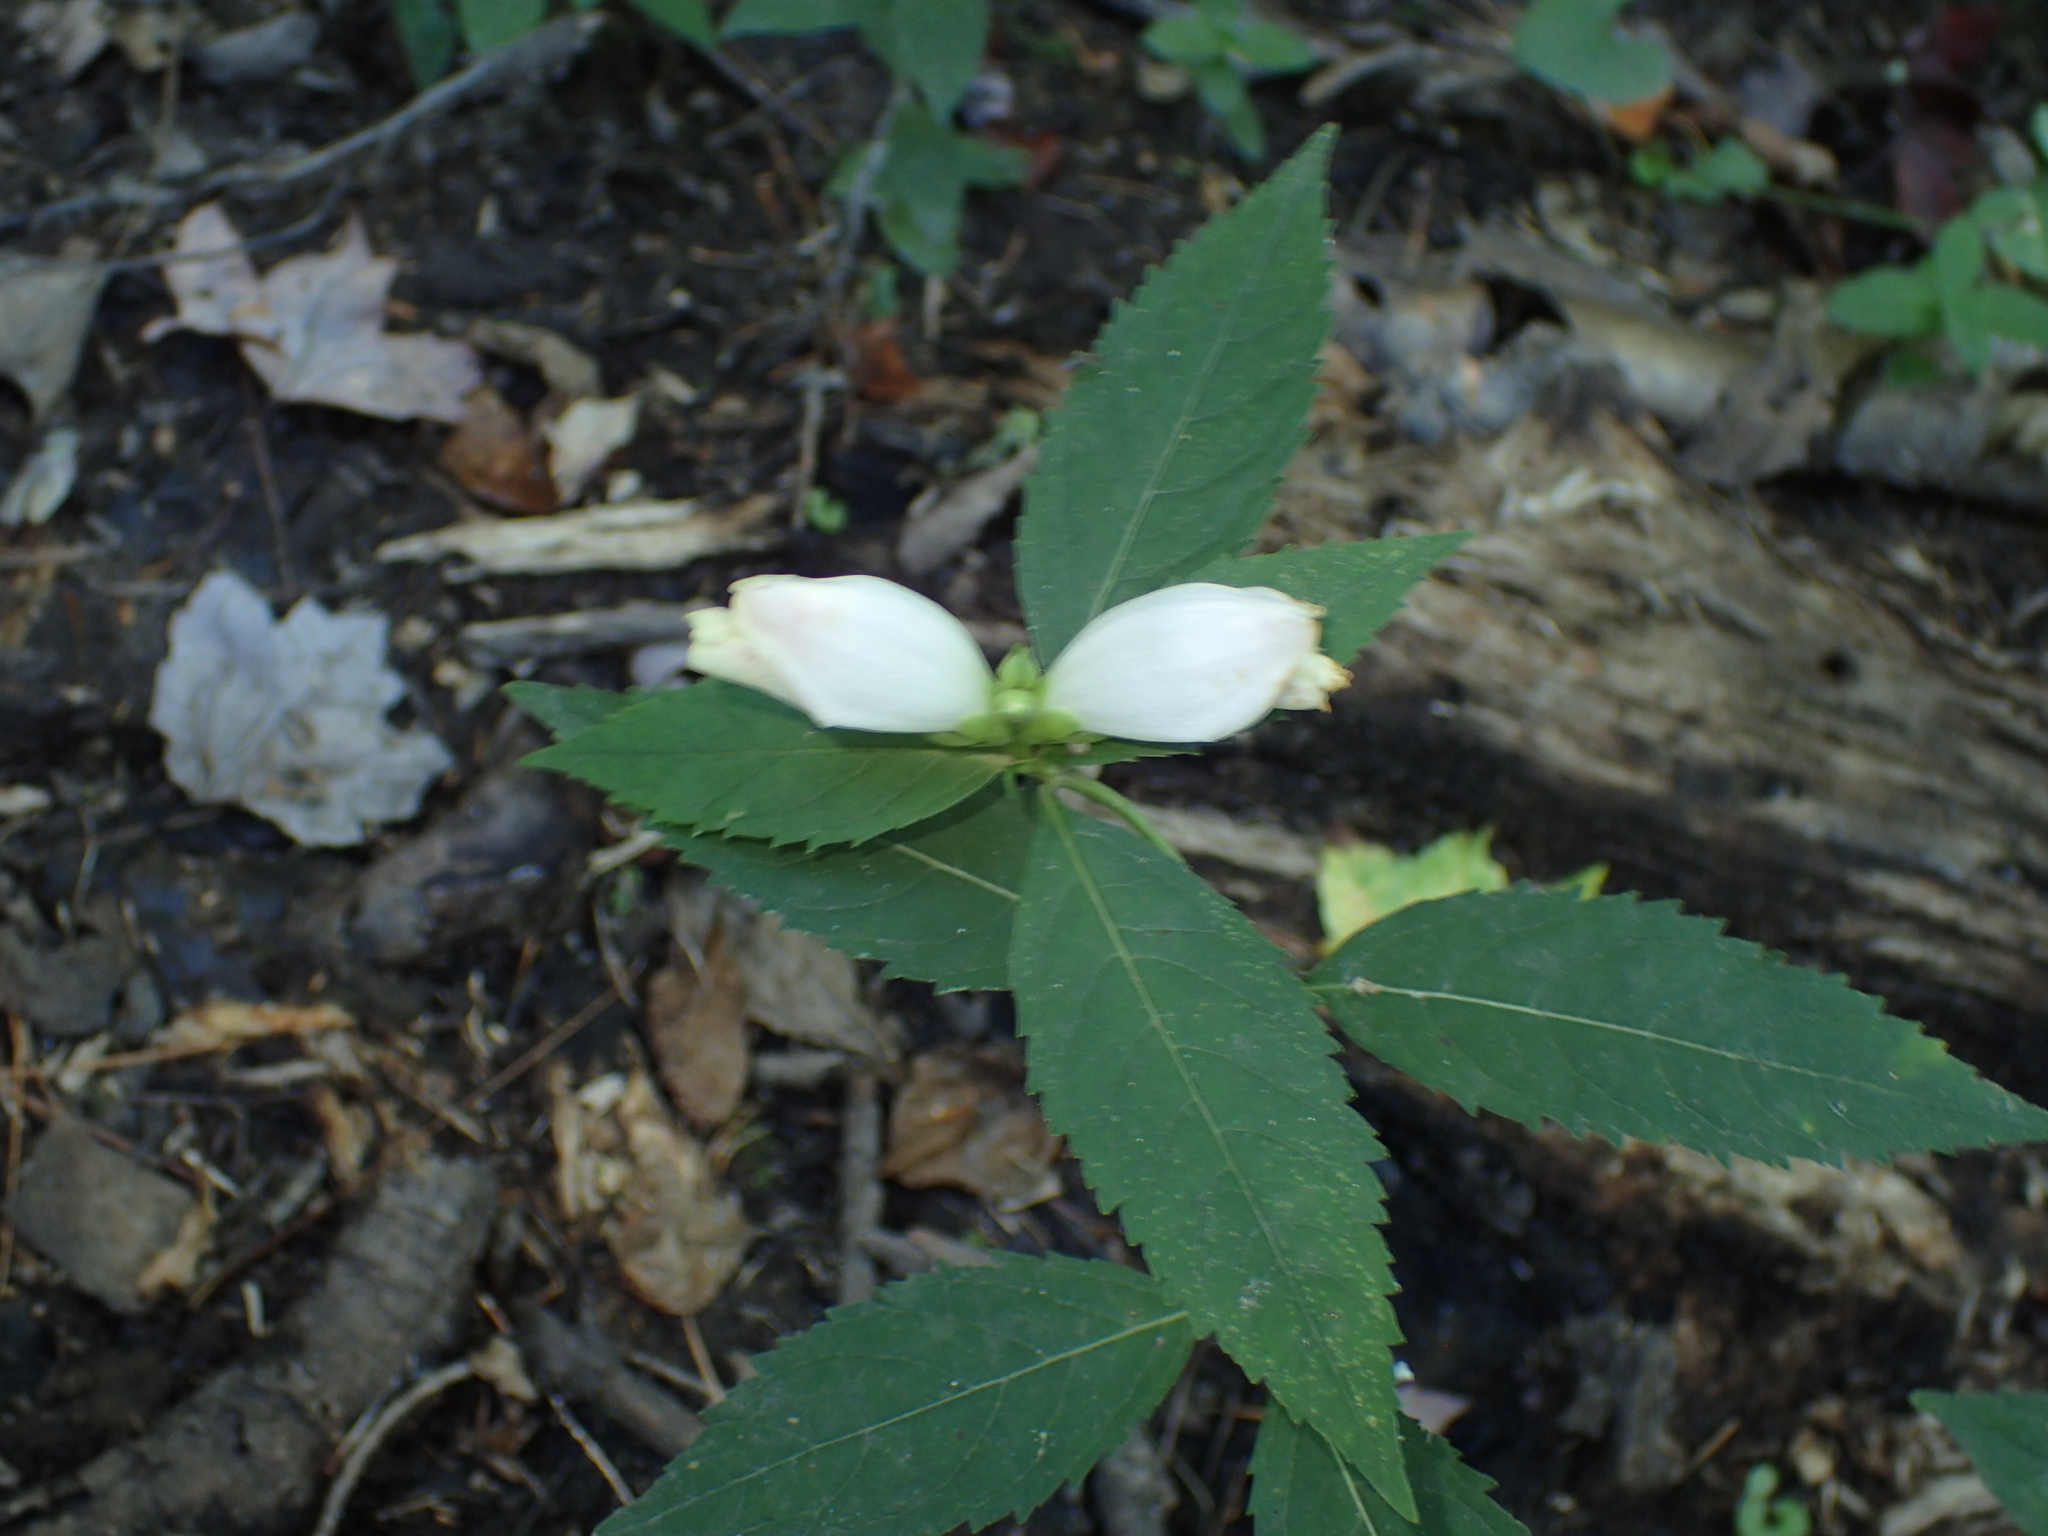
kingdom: Plantae
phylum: Tracheophyta
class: Magnoliopsida
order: Lamiales
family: Plantaginaceae
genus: Chelone
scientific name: Chelone glabra
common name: Snakehead
